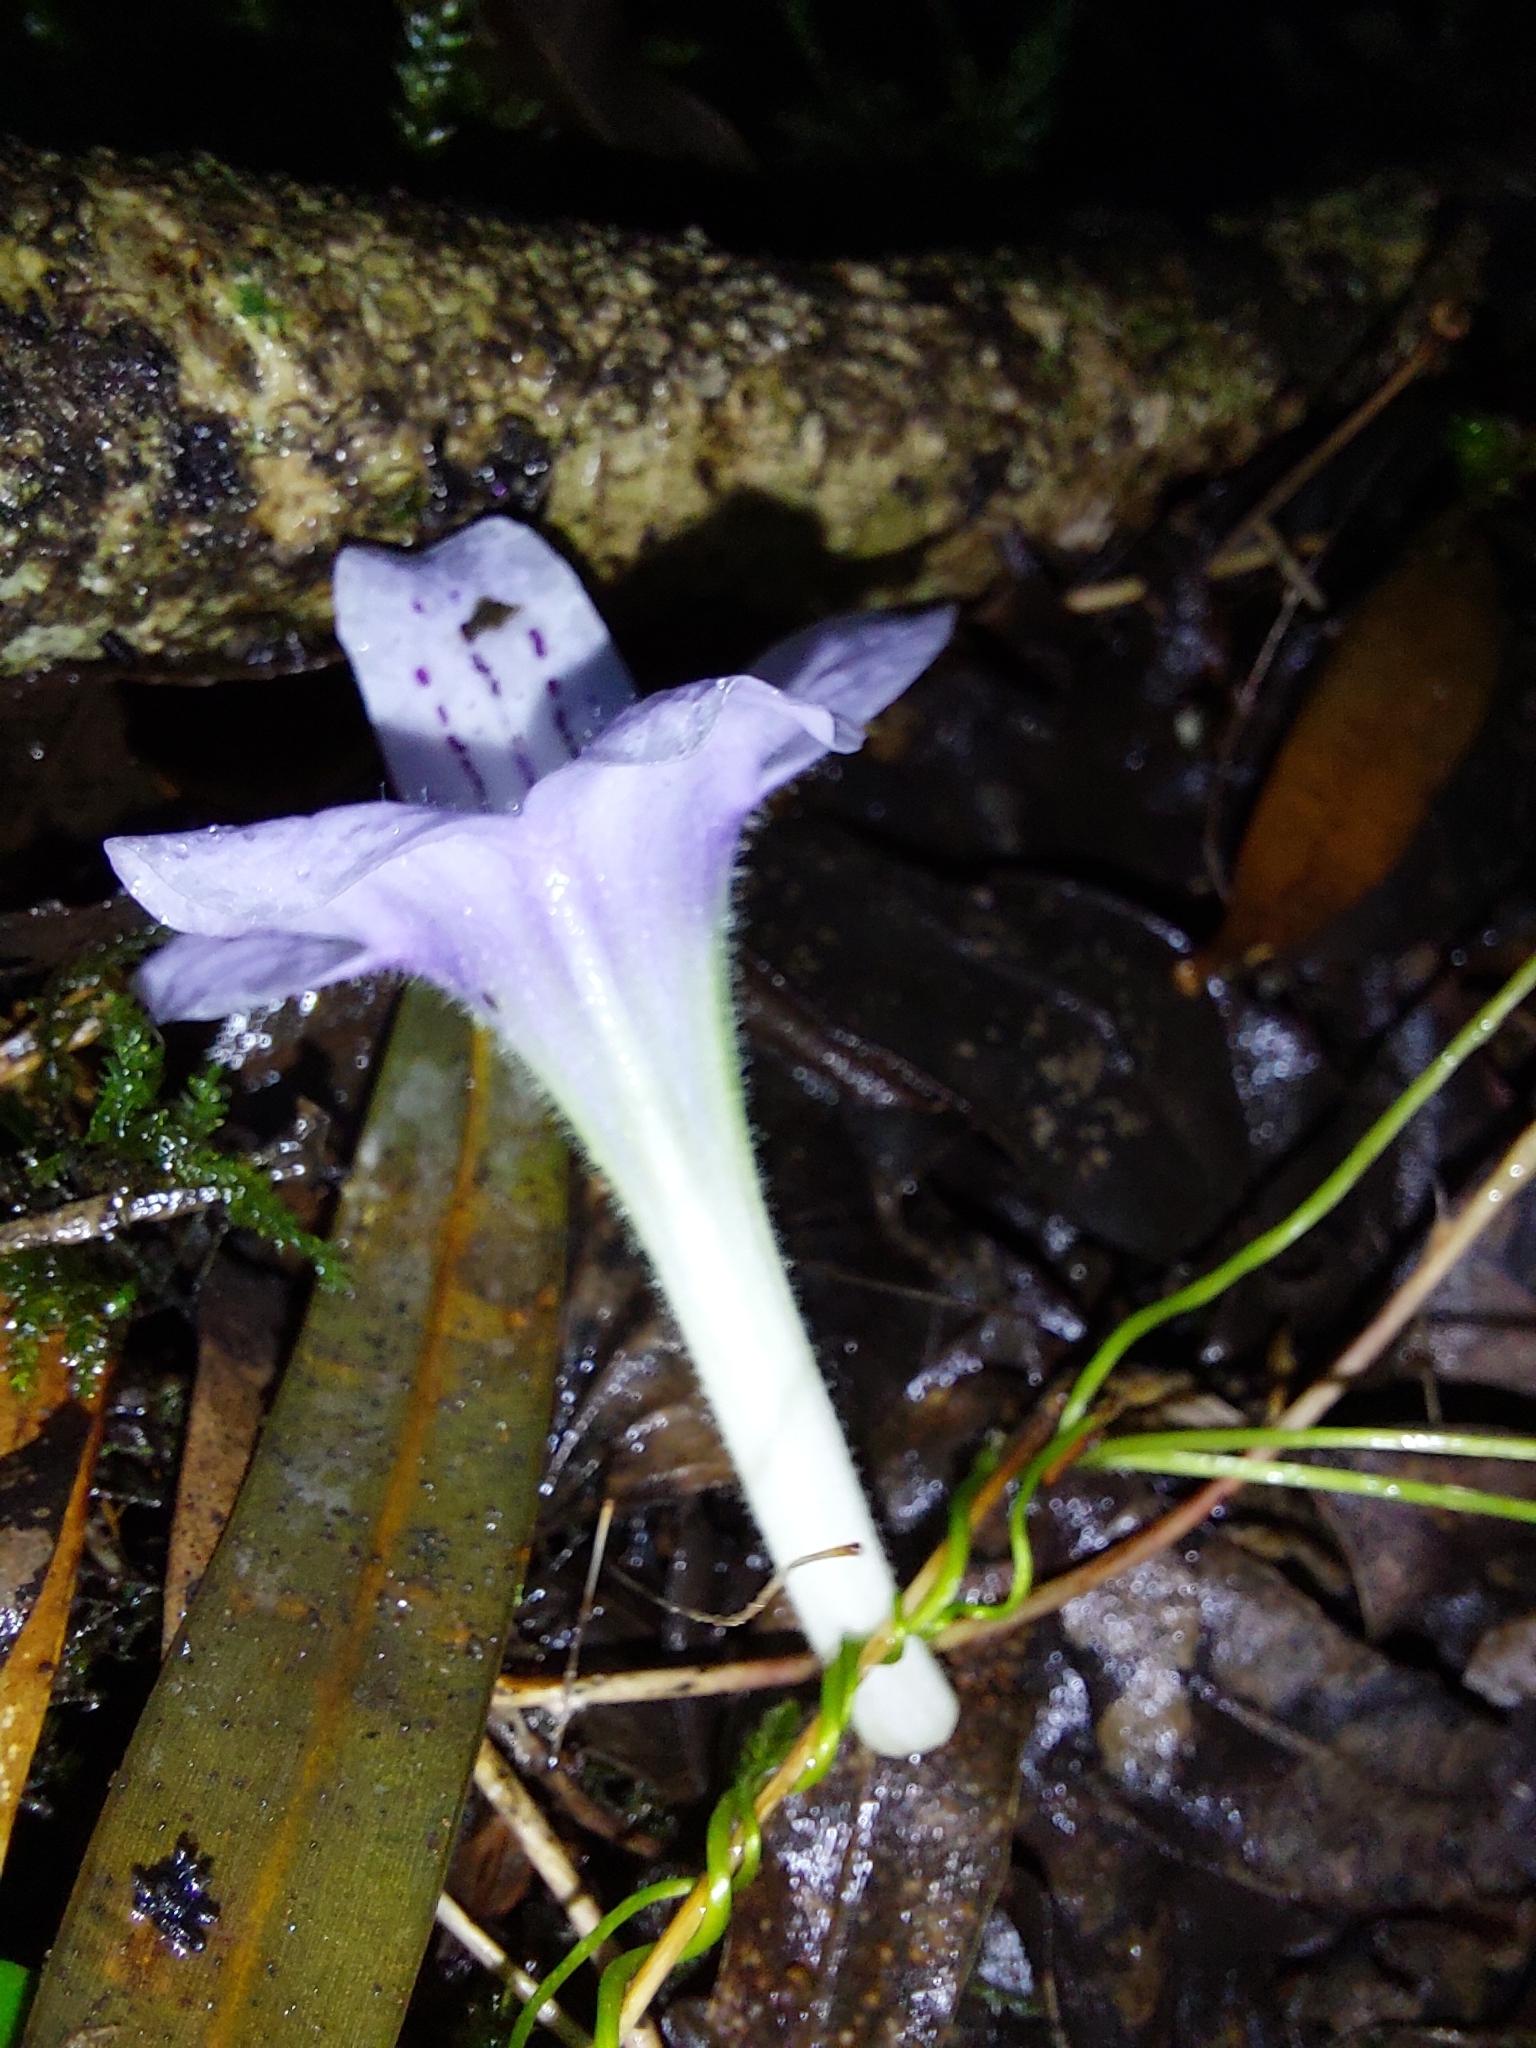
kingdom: Plantae
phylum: Tracheophyta
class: Magnoliopsida
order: Lamiales
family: Gesneriaceae
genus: Streptocarpus
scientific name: Streptocarpus gardenii
